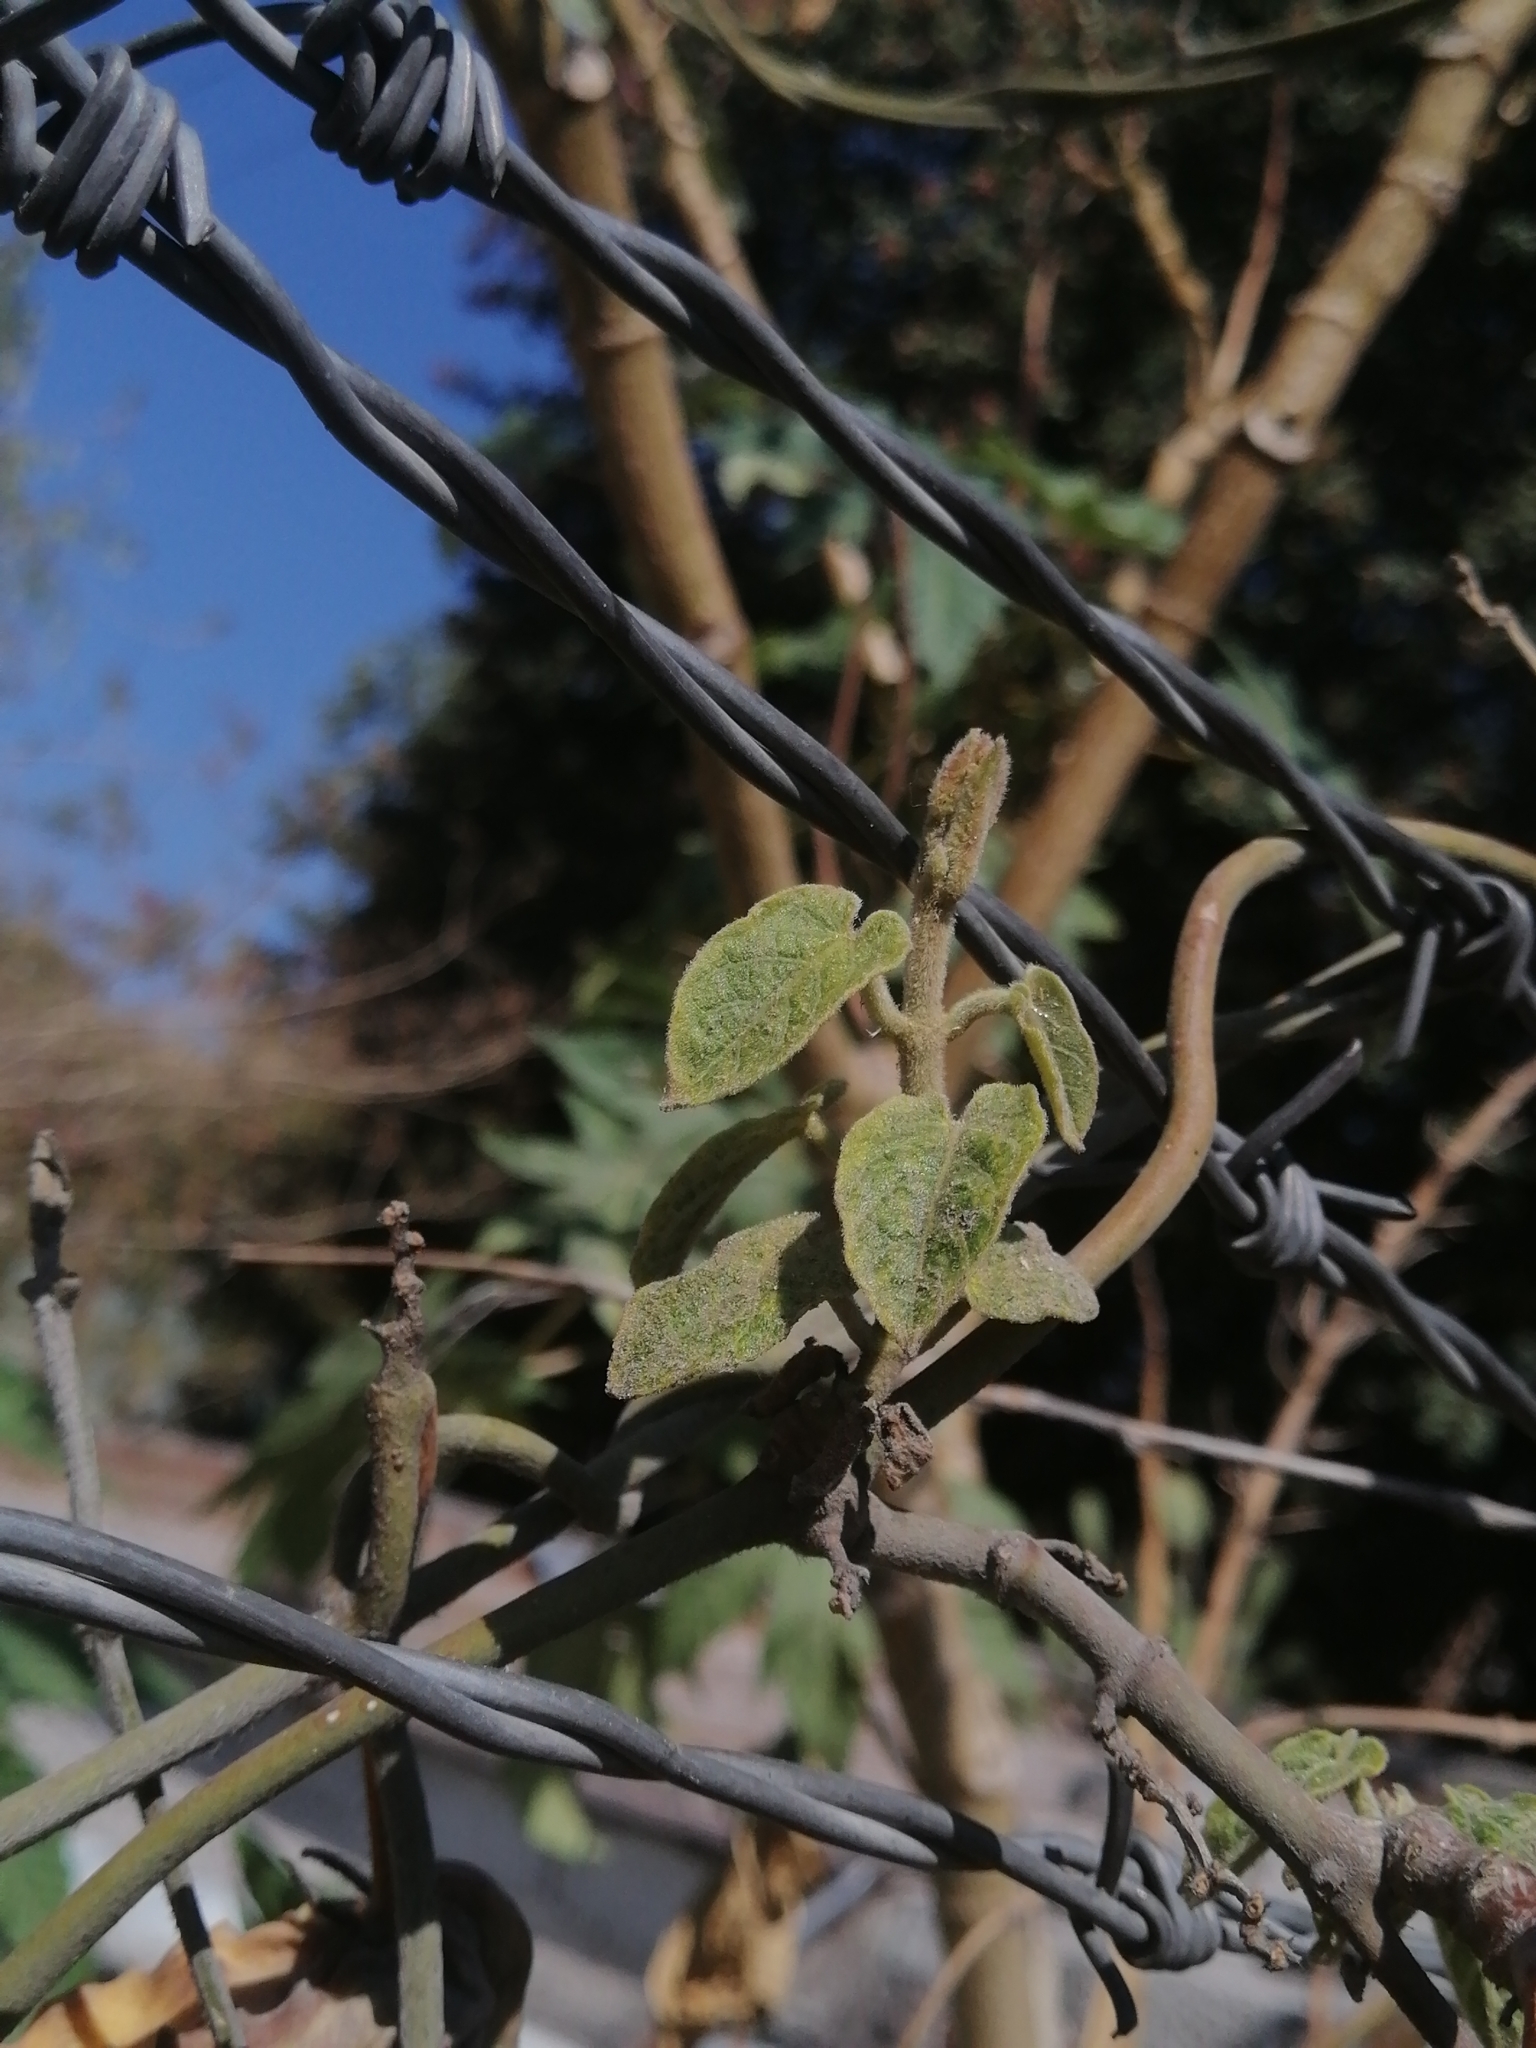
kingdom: Plantae
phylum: Tracheophyta
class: Magnoliopsida
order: Gentianales
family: Apocynaceae
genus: Gonolobus
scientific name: Gonolobus grandiflorus
